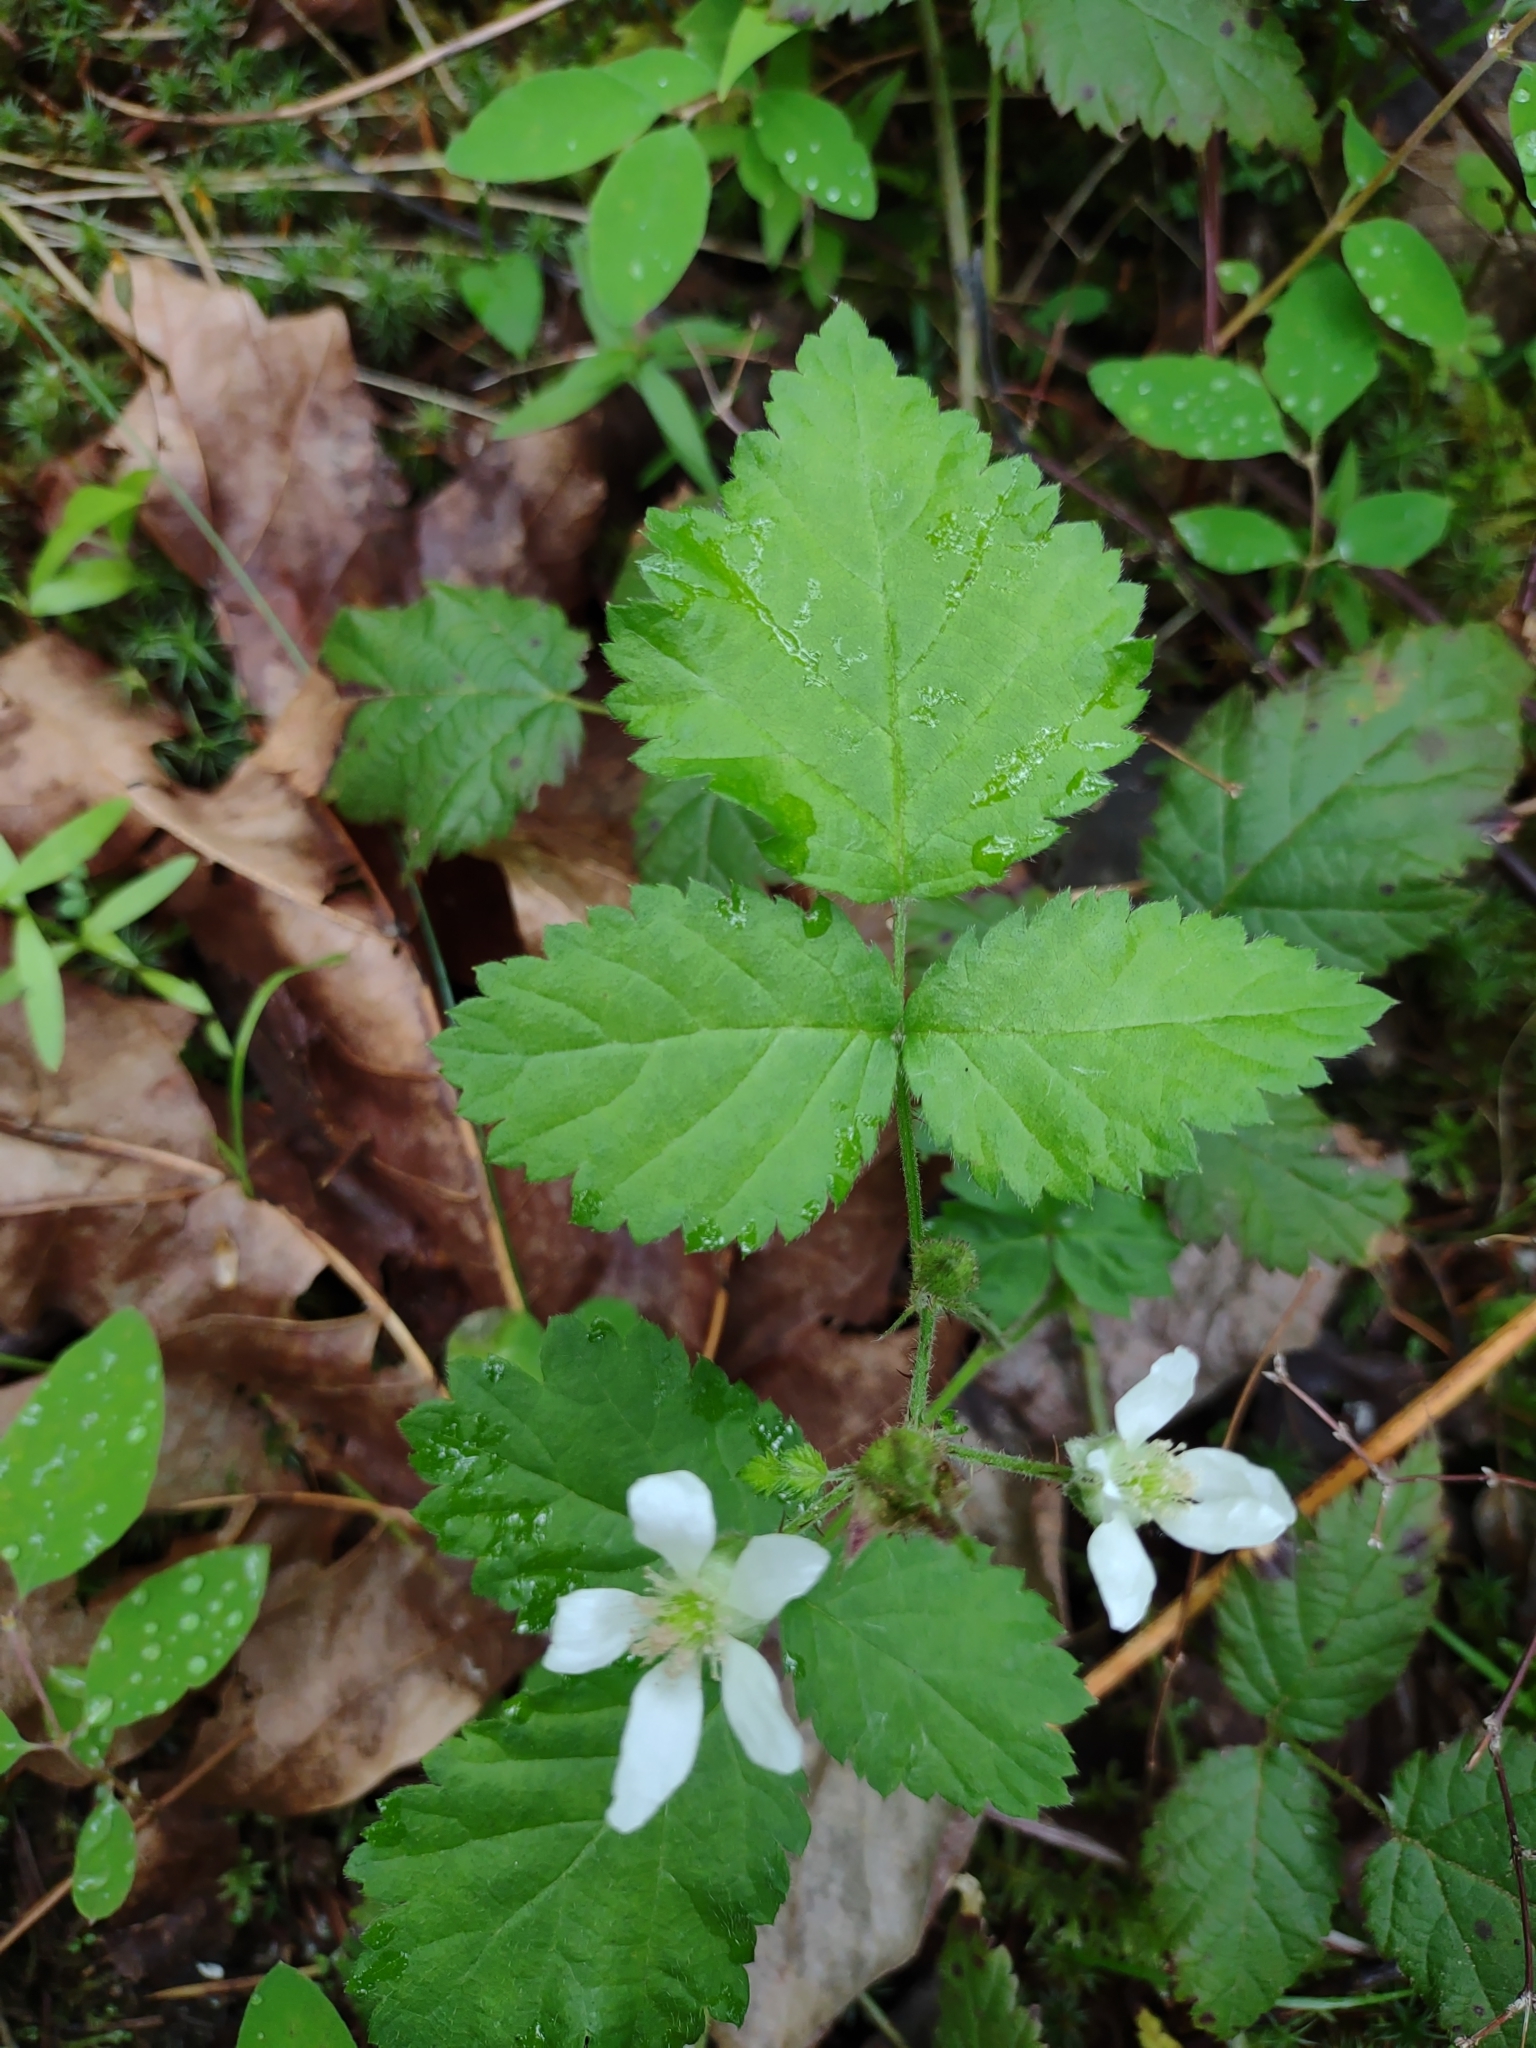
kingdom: Plantae
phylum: Tracheophyta
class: Magnoliopsida
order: Rosales
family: Rosaceae
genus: Rubus
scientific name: Rubus ursinus
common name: Pacific blackberry
